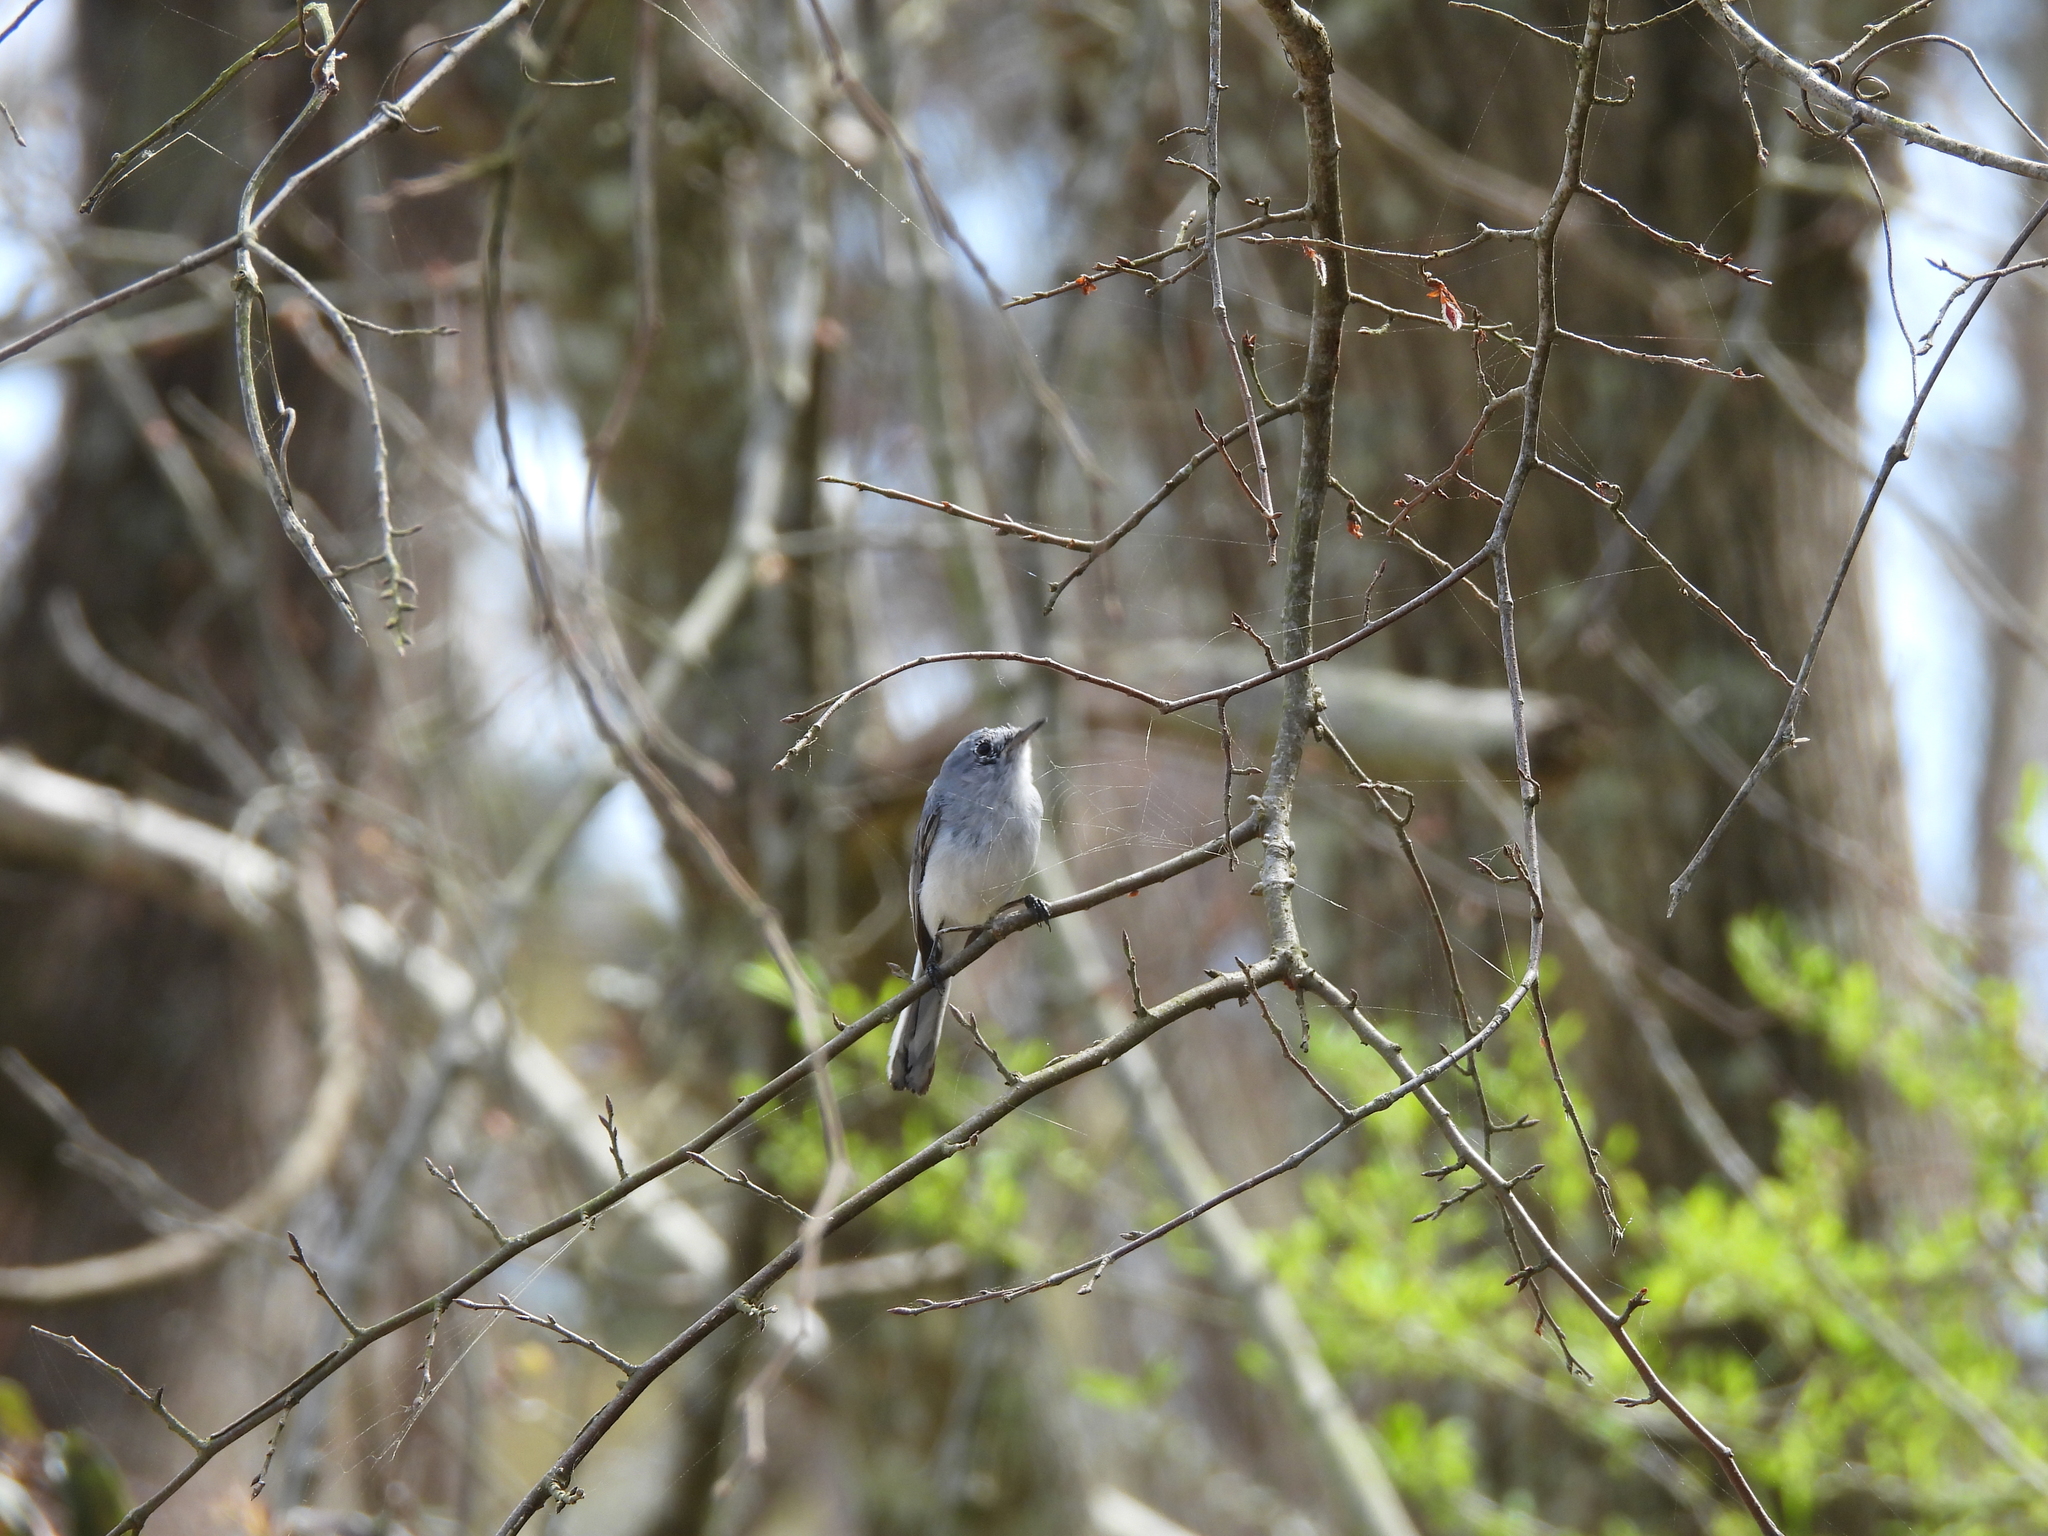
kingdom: Animalia
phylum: Chordata
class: Aves
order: Passeriformes
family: Polioptilidae
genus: Polioptila
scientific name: Polioptila caerulea
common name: Blue-gray gnatcatcher
